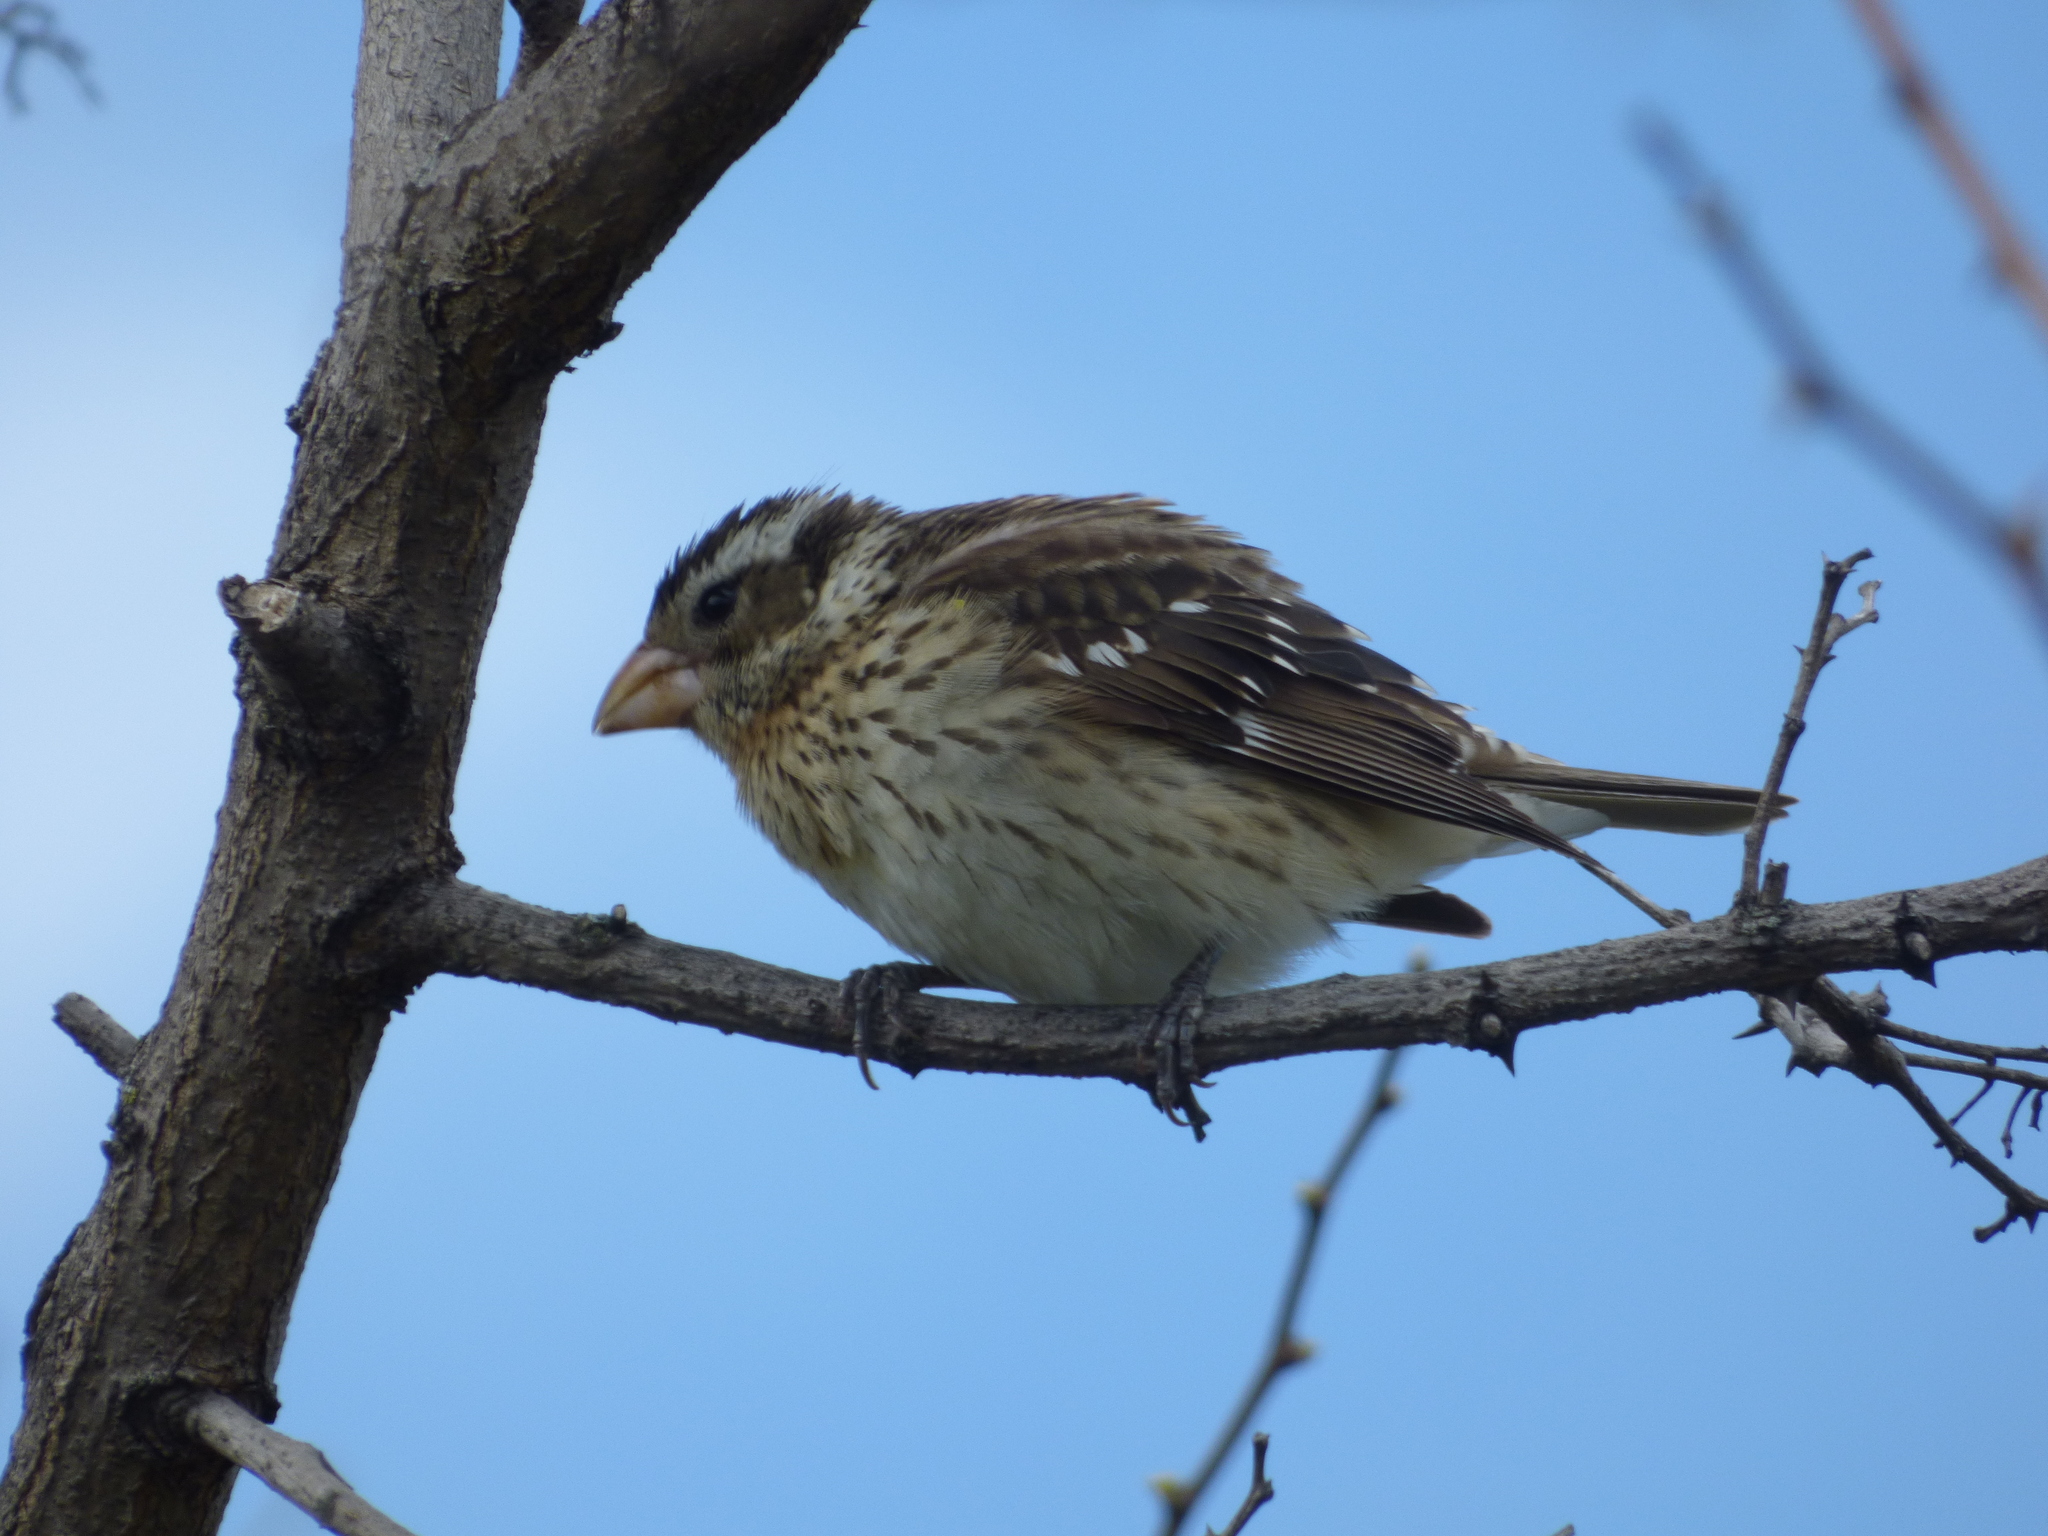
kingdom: Animalia
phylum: Chordata
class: Aves
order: Passeriformes
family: Cardinalidae
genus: Pheucticus
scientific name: Pheucticus ludovicianus
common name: Rose-breasted grosbeak
